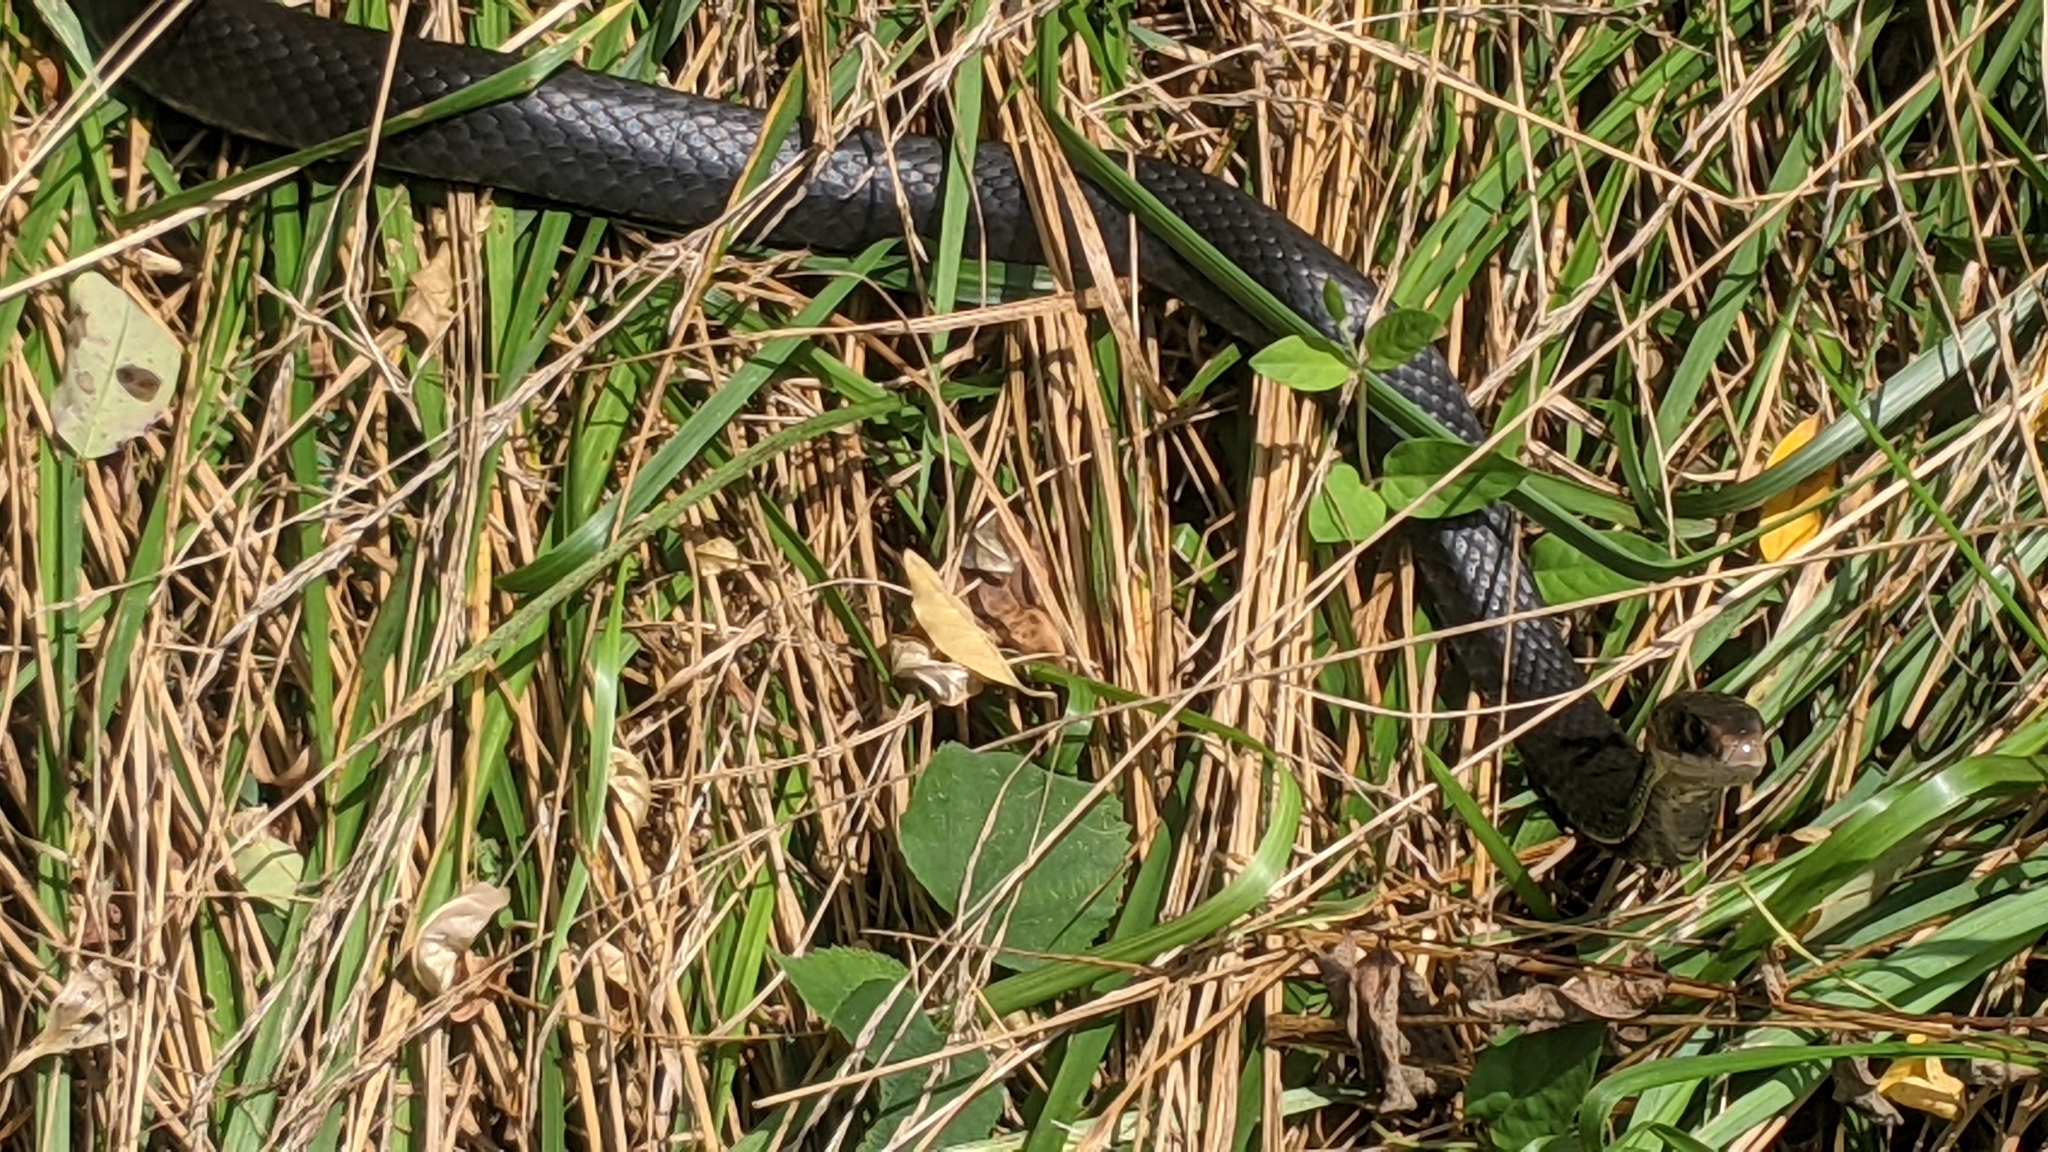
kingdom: Animalia
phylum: Chordata
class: Squamata
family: Colubridae
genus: Coluber
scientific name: Coluber constrictor
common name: Eastern racer
